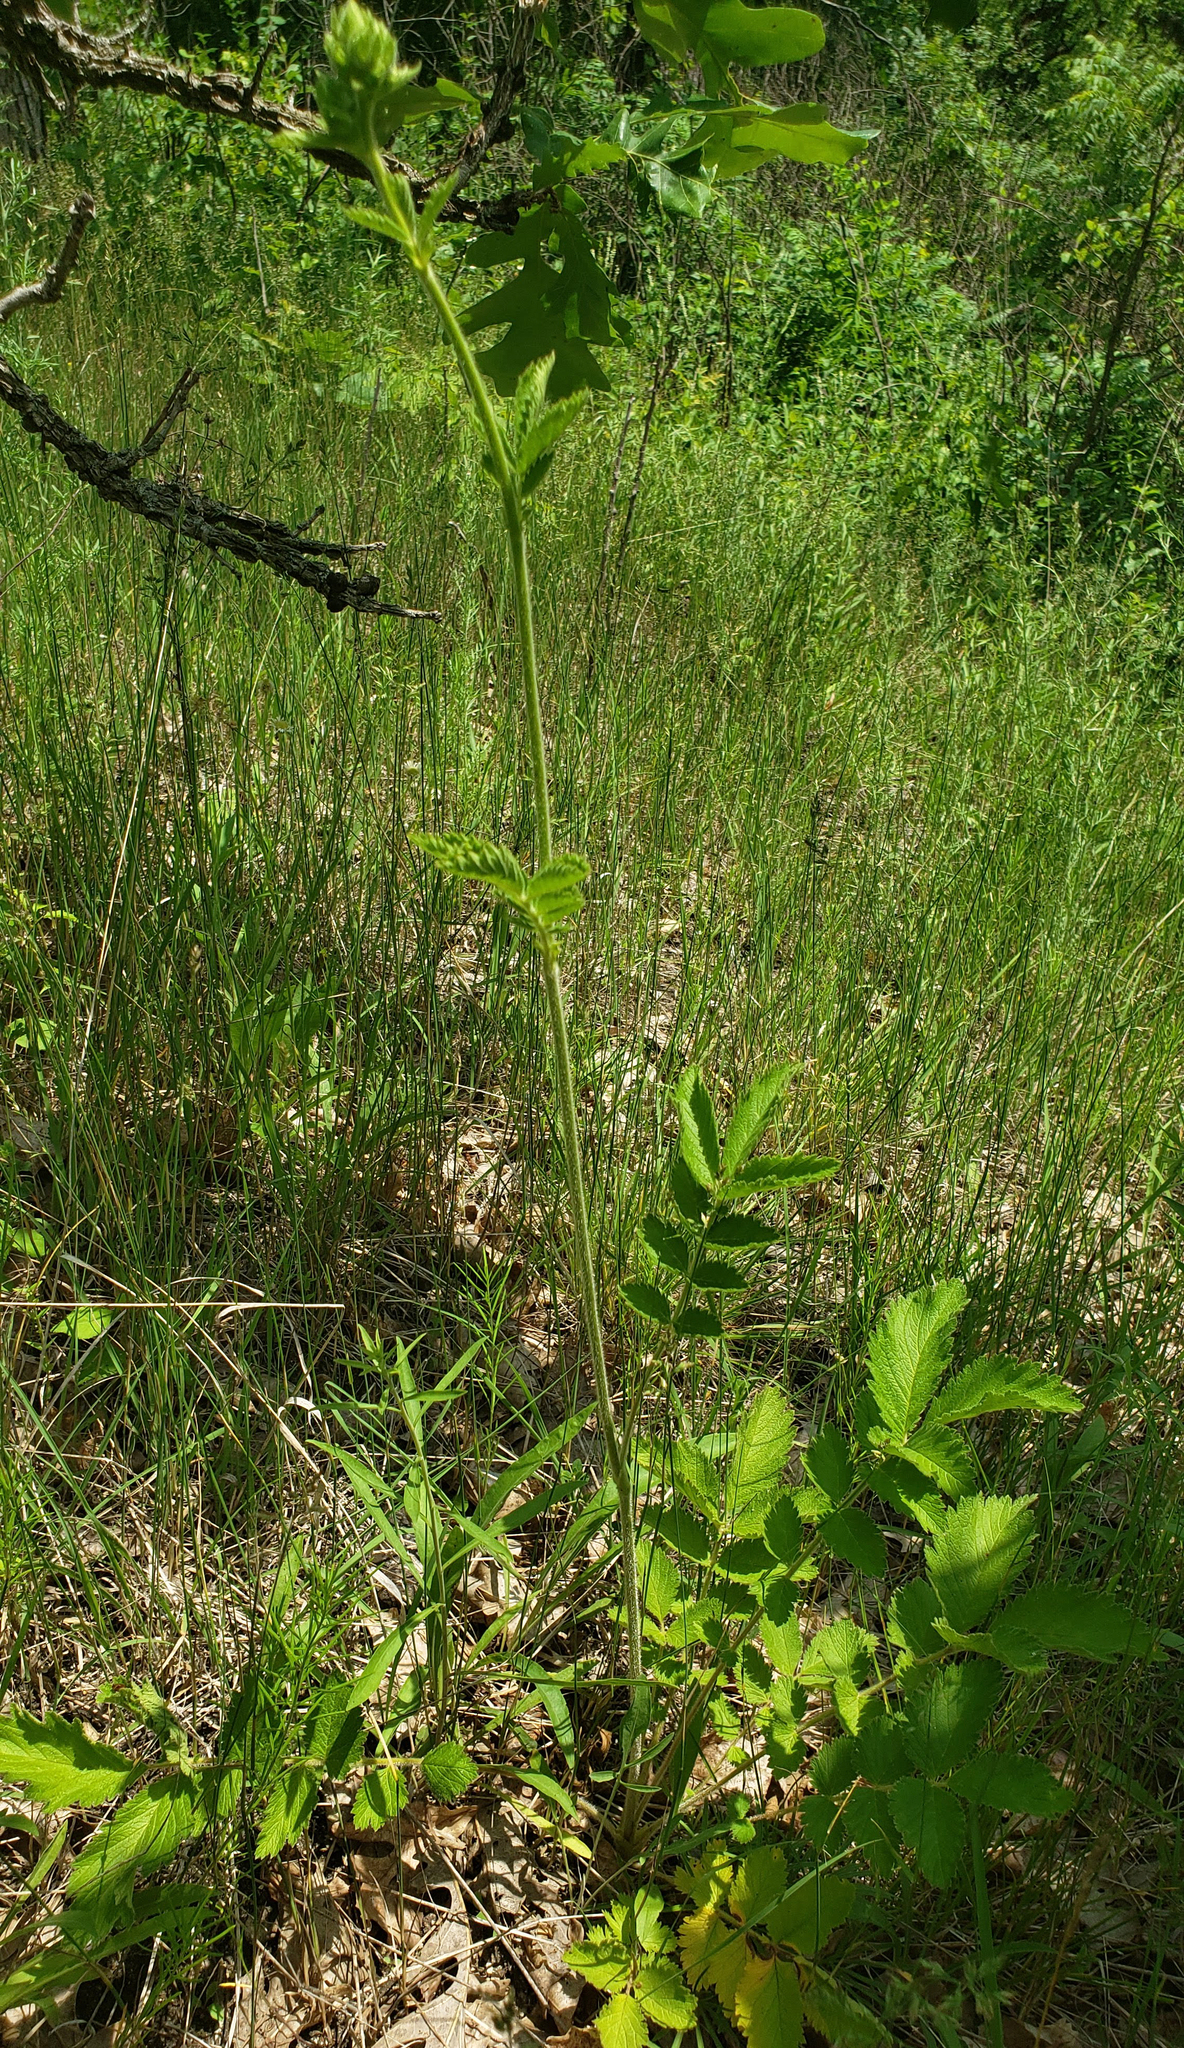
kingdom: Plantae
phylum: Tracheophyta
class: Magnoliopsida
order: Rosales
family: Rosaceae
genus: Drymocallis
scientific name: Drymocallis arguta
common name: Tall cinquefoil
